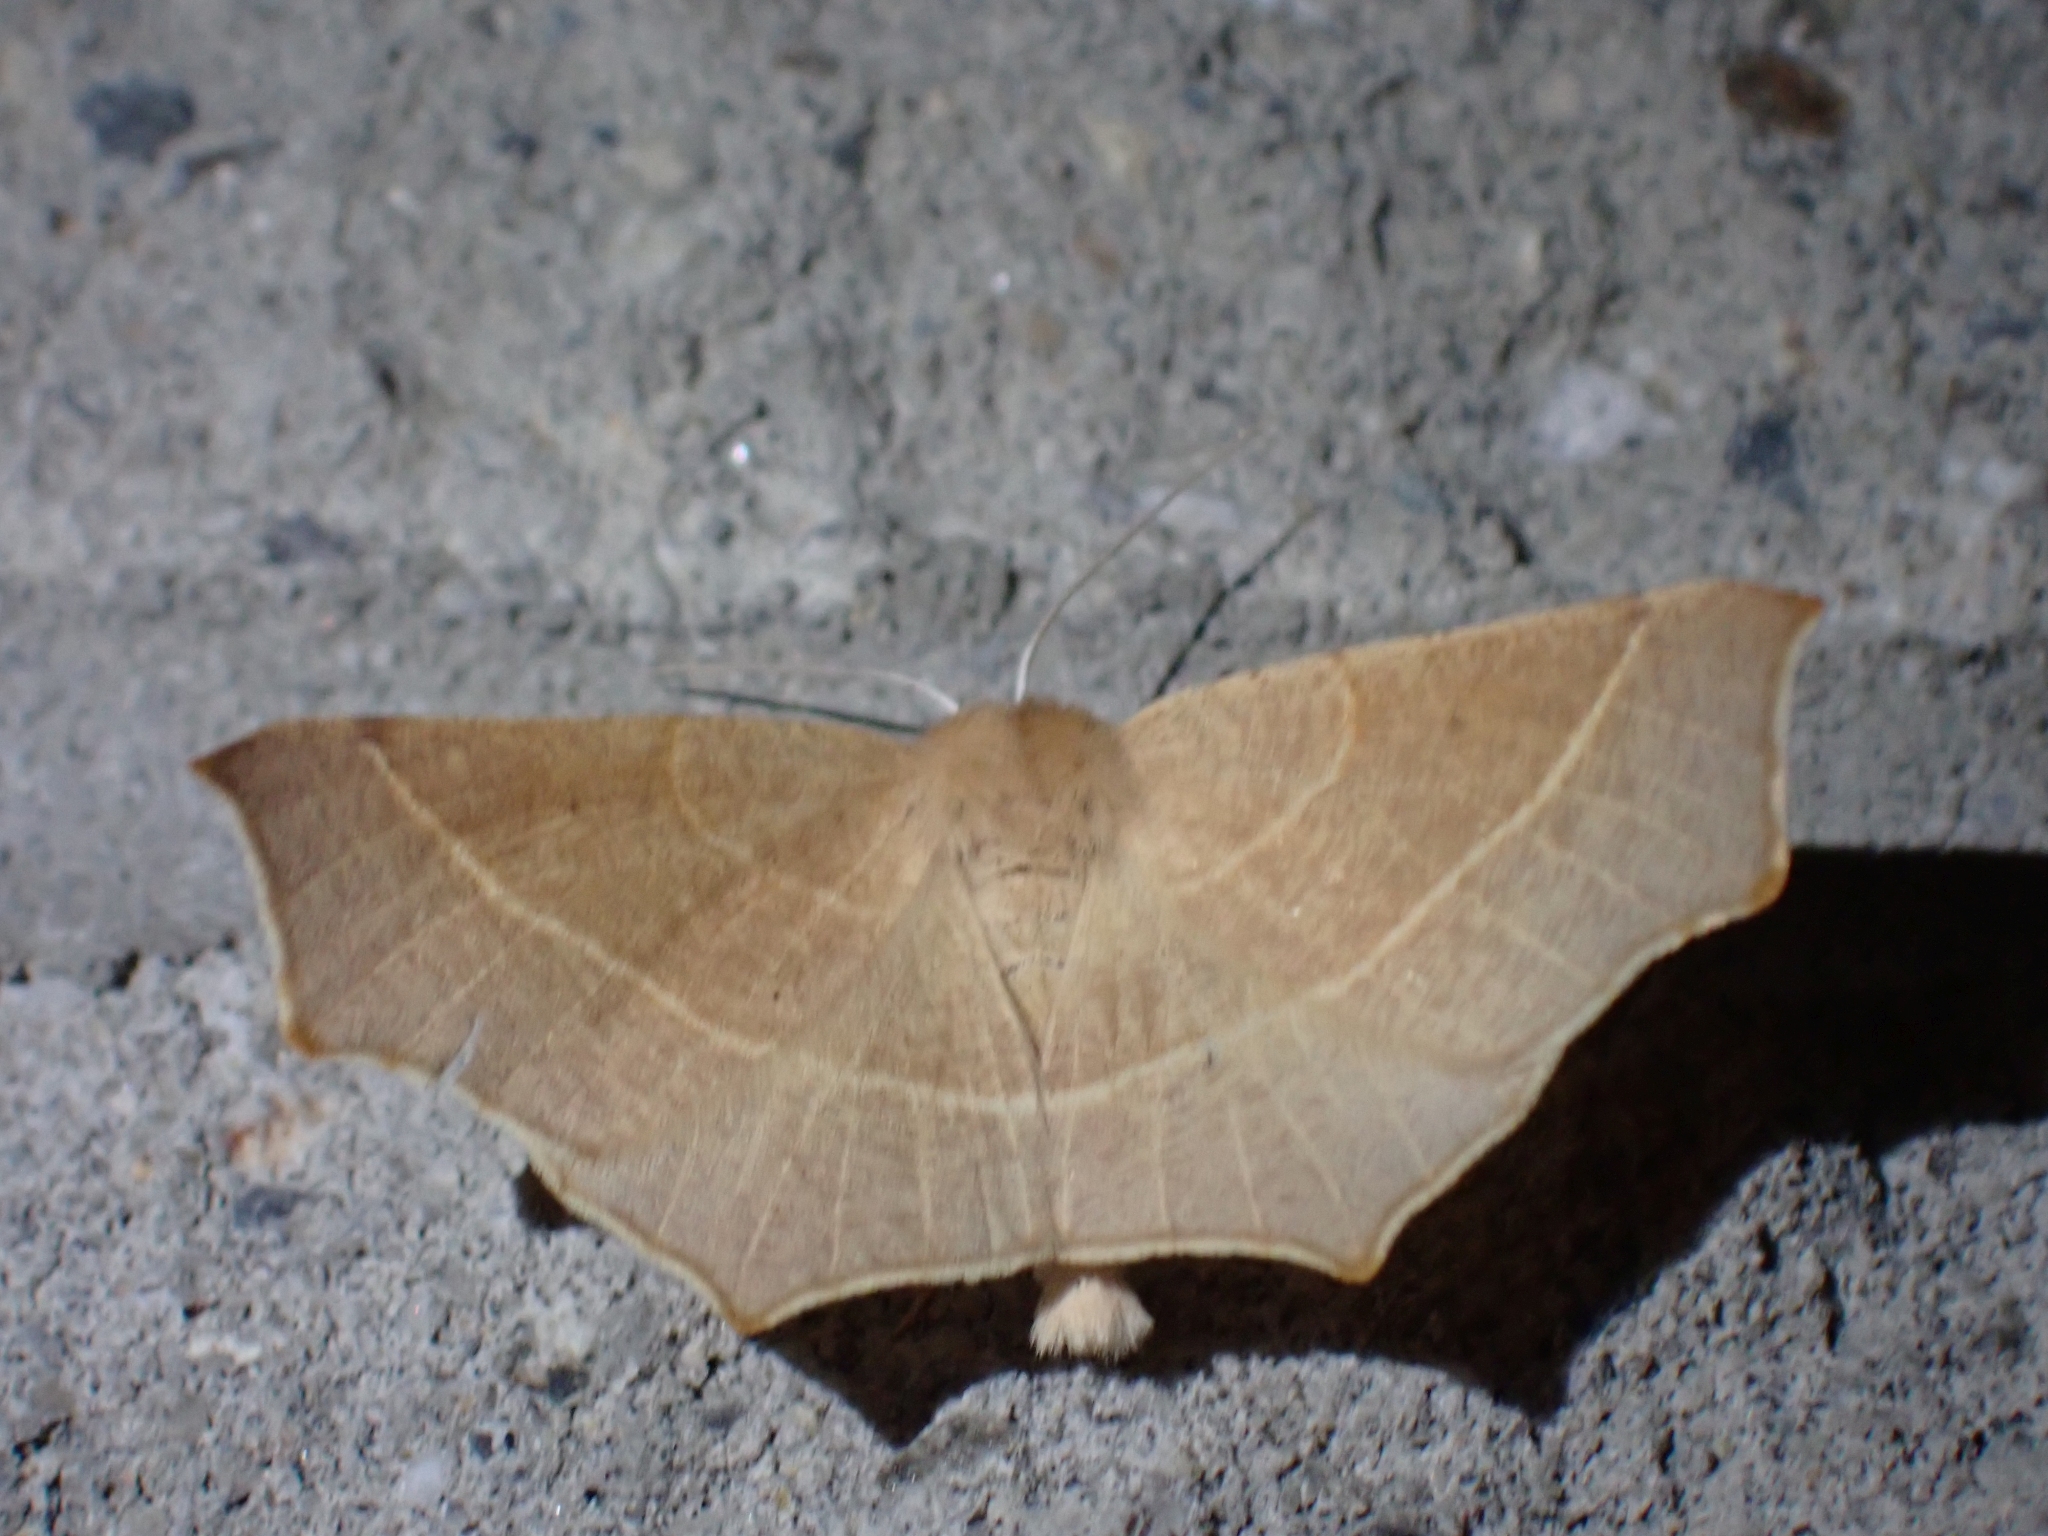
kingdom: Animalia
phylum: Arthropoda
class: Insecta
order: Lepidoptera
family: Geometridae
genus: Tetracis
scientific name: Tetracis cervinaria
